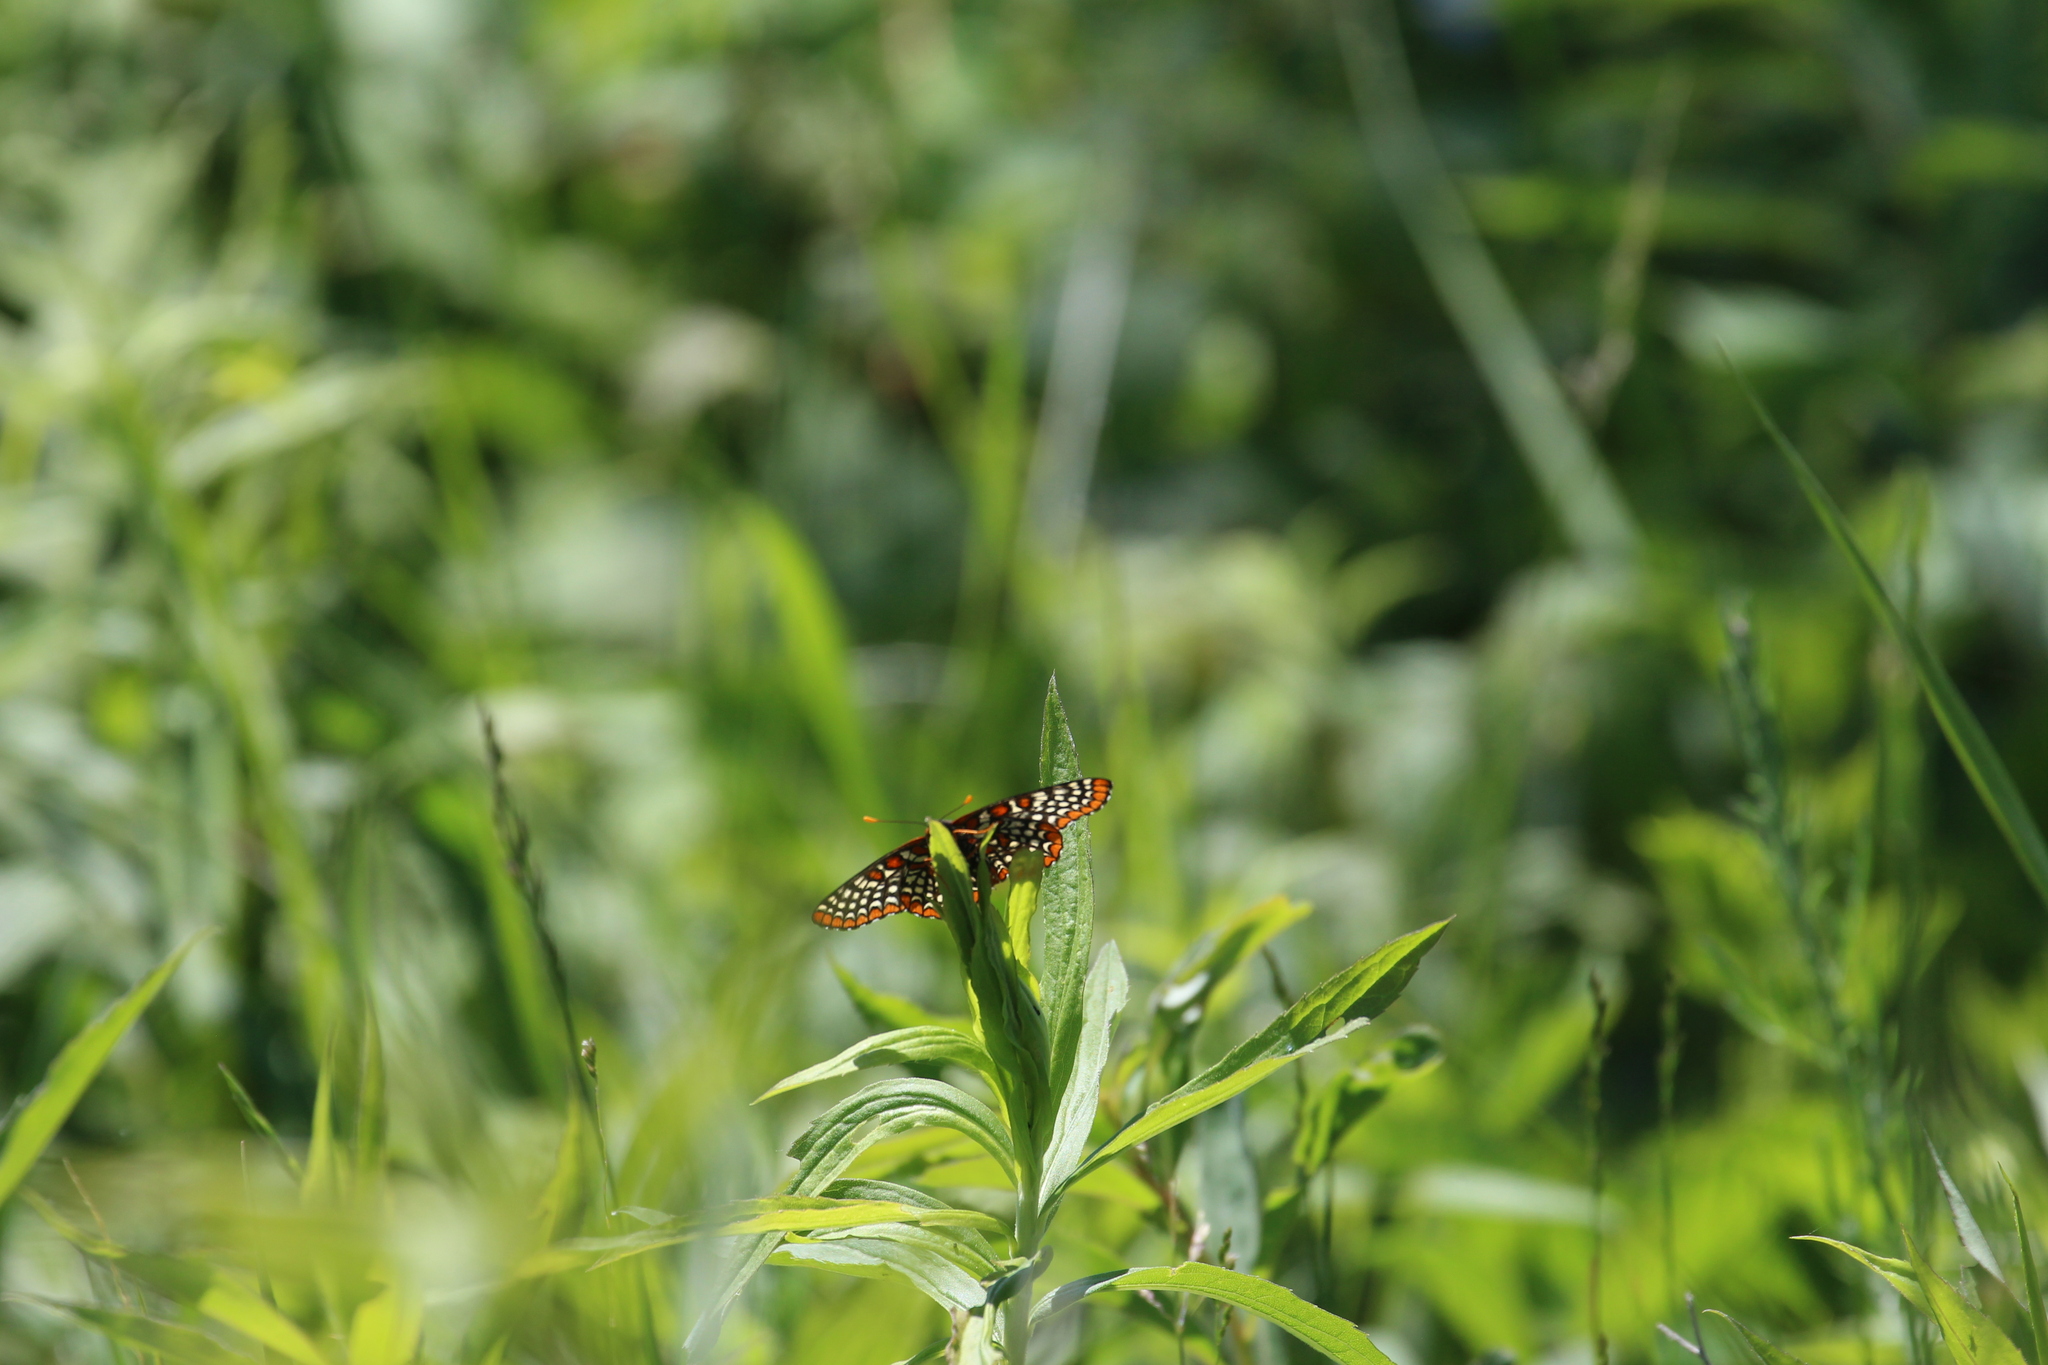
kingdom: Animalia
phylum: Arthropoda
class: Insecta
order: Lepidoptera
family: Nymphalidae
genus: Euphydryas
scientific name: Euphydryas phaeton
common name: Baltimore checkerspot
